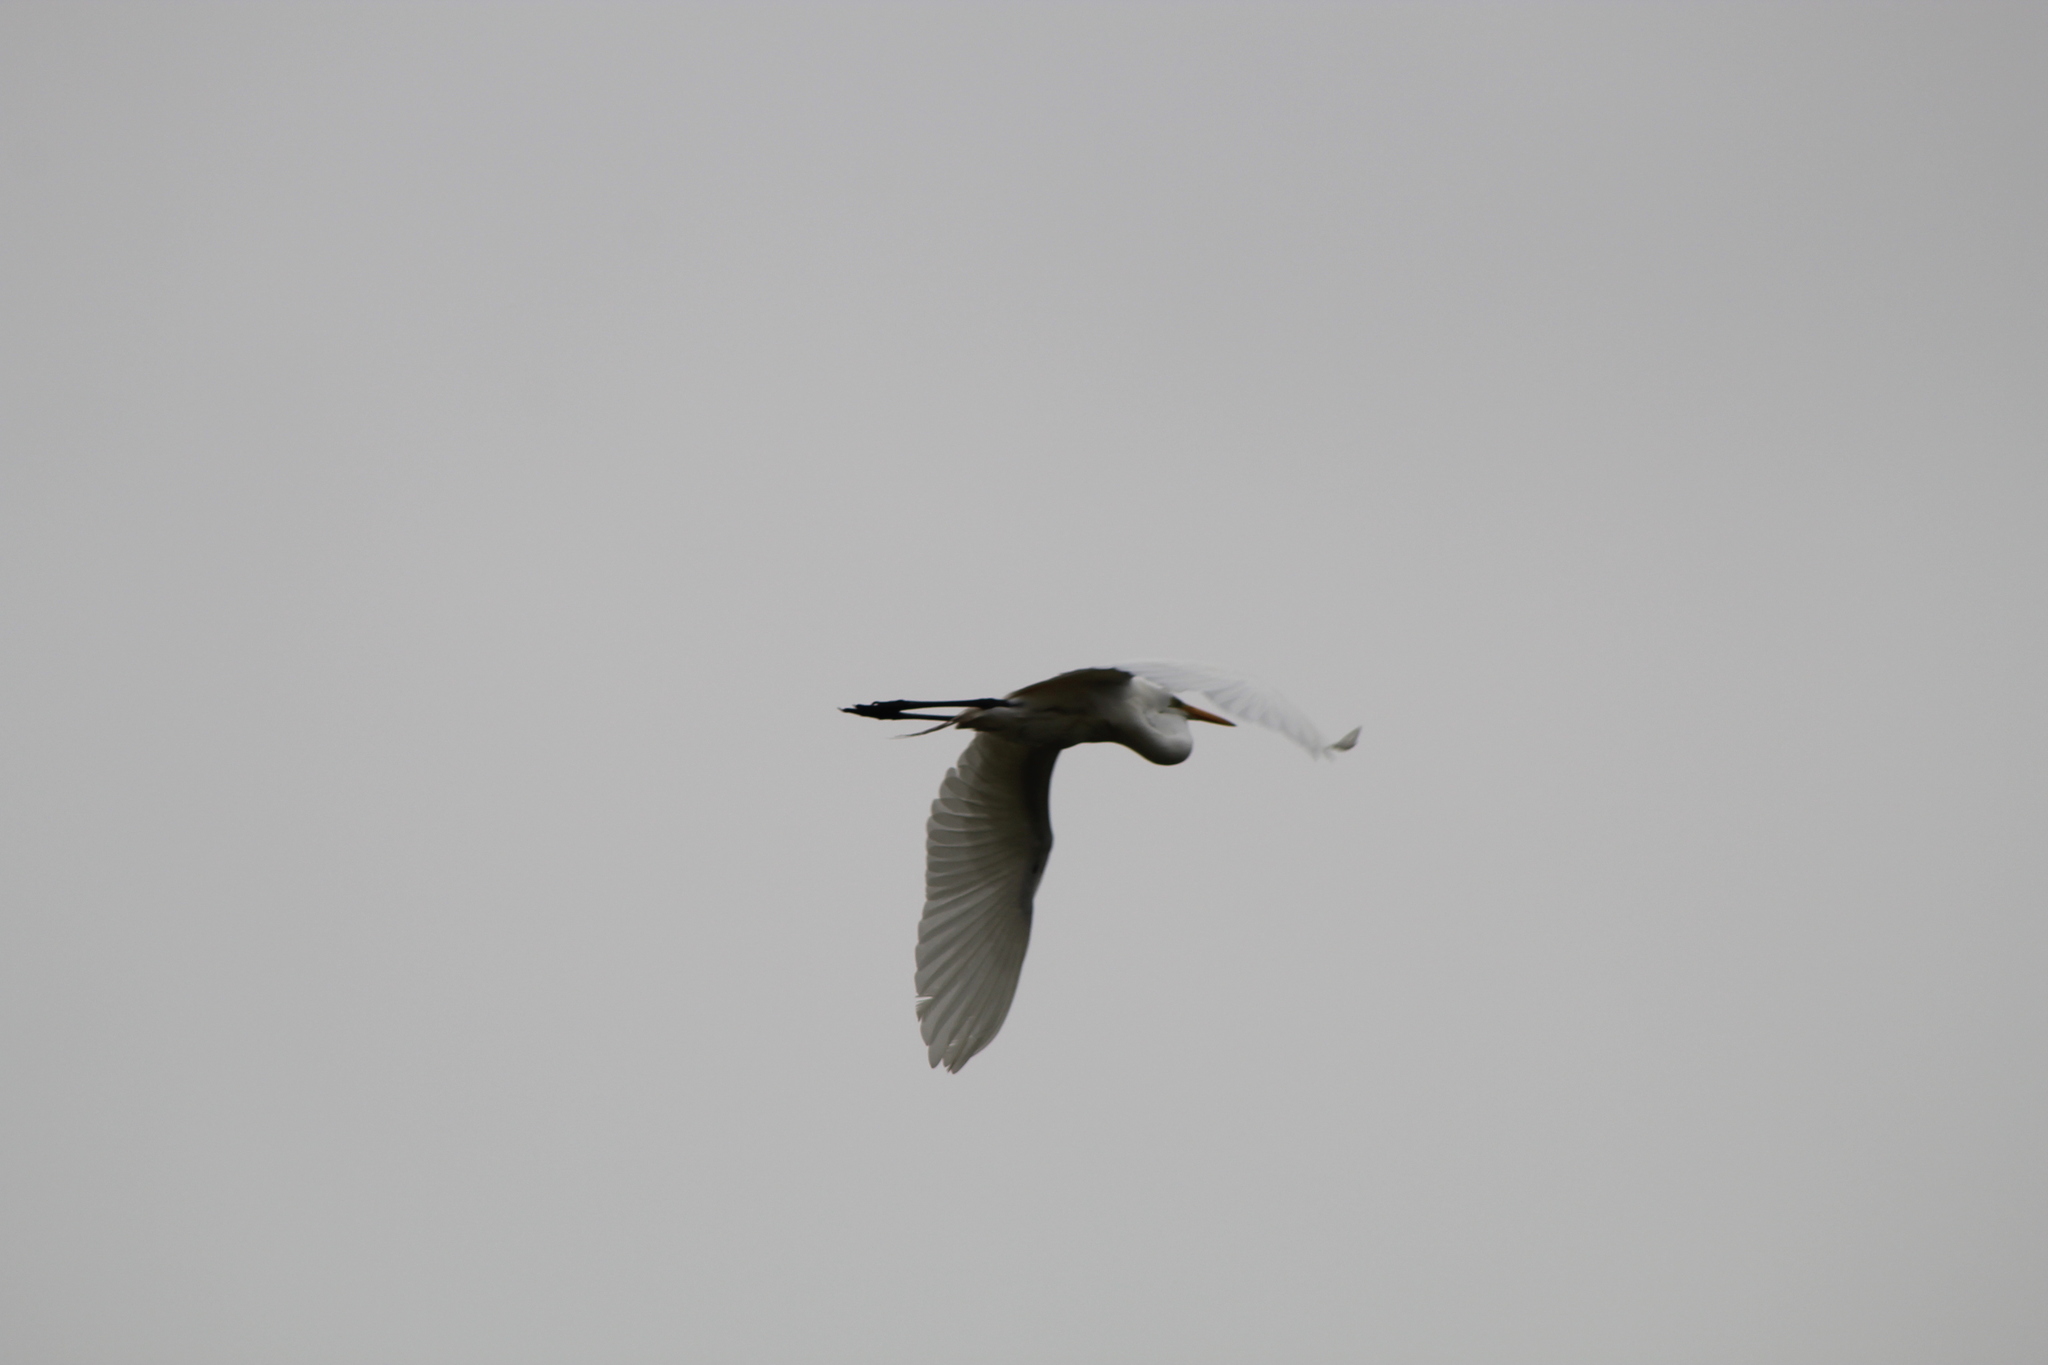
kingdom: Animalia
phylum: Chordata
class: Aves
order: Pelecaniformes
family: Ardeidae
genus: Ardea
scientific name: Ardea alba
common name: Great egret
